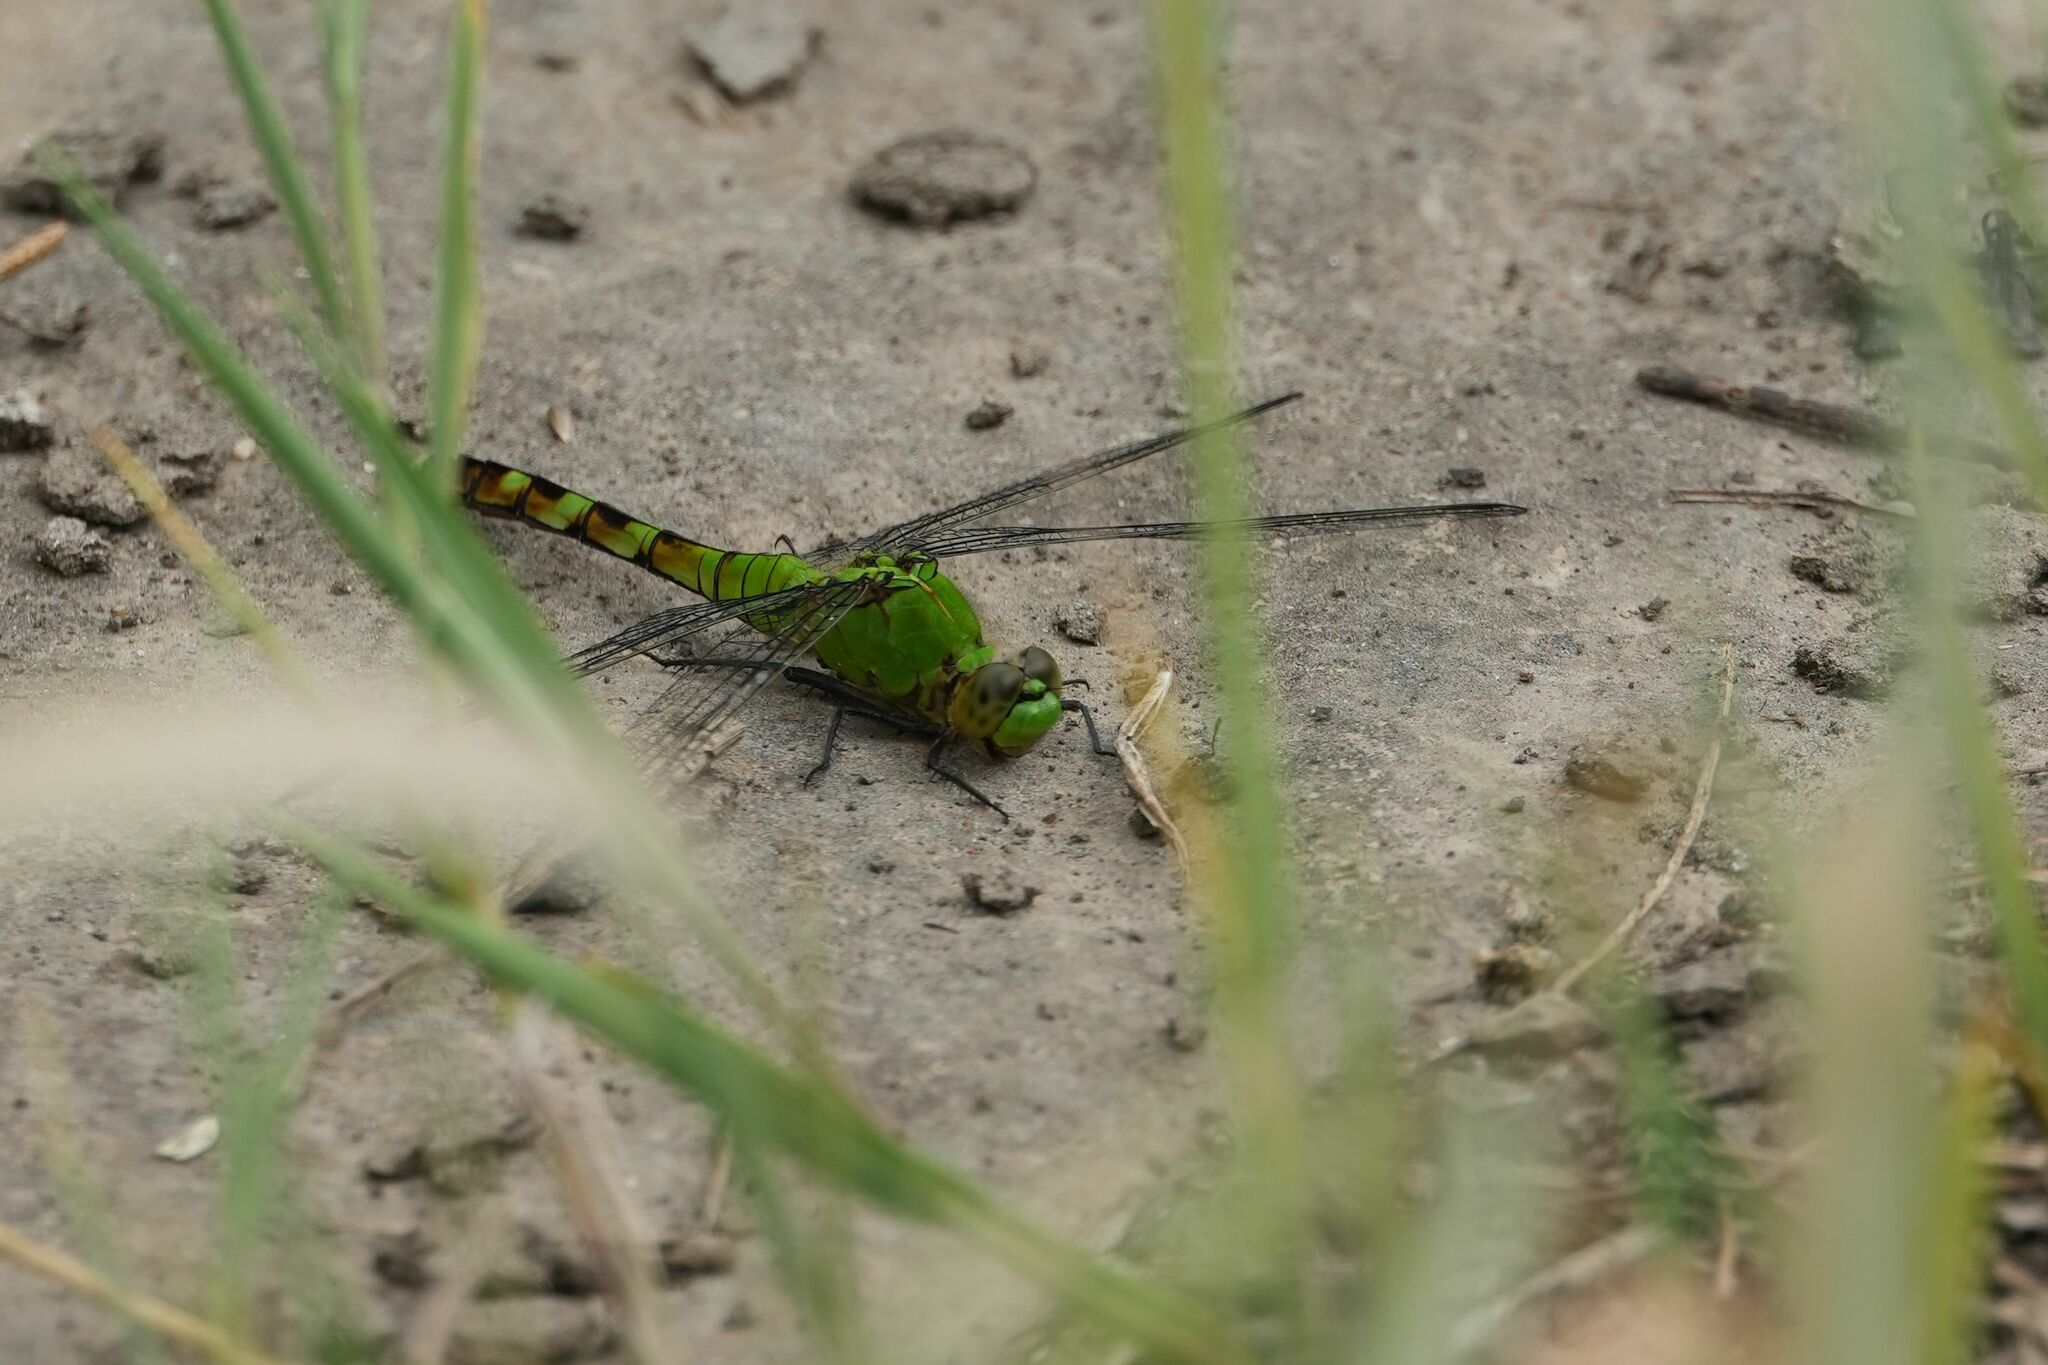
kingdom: Animalia
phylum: Arthropoda
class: Insecta
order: Odonata
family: Libellulidae
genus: Erythemis
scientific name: Erythemis simplicicollis
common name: Eastern pondhawk
